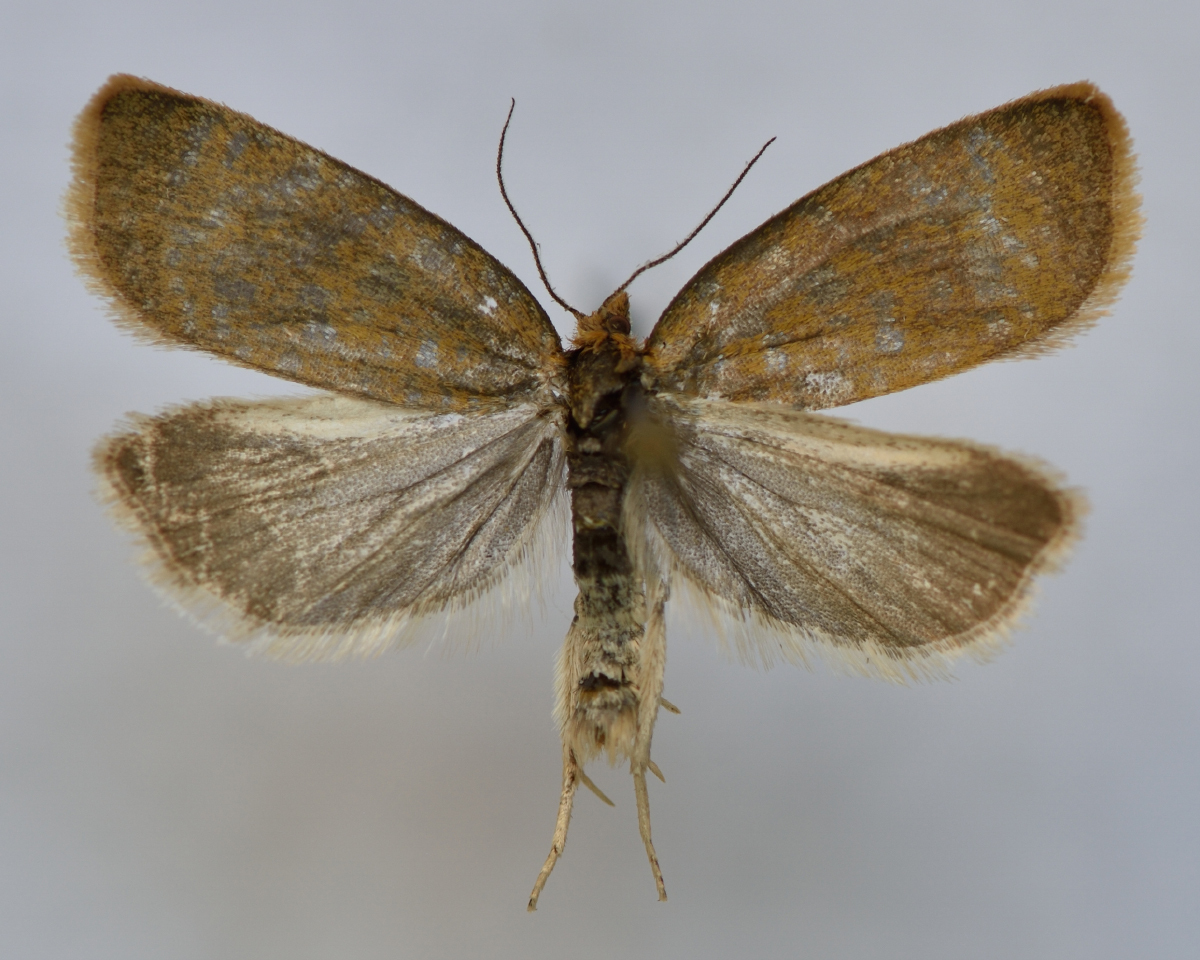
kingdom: Animalia
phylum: Arthropoda
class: Insecta
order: Lepidoptera
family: Tortricidae
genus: Clepsis
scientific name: Clepsis rogana
